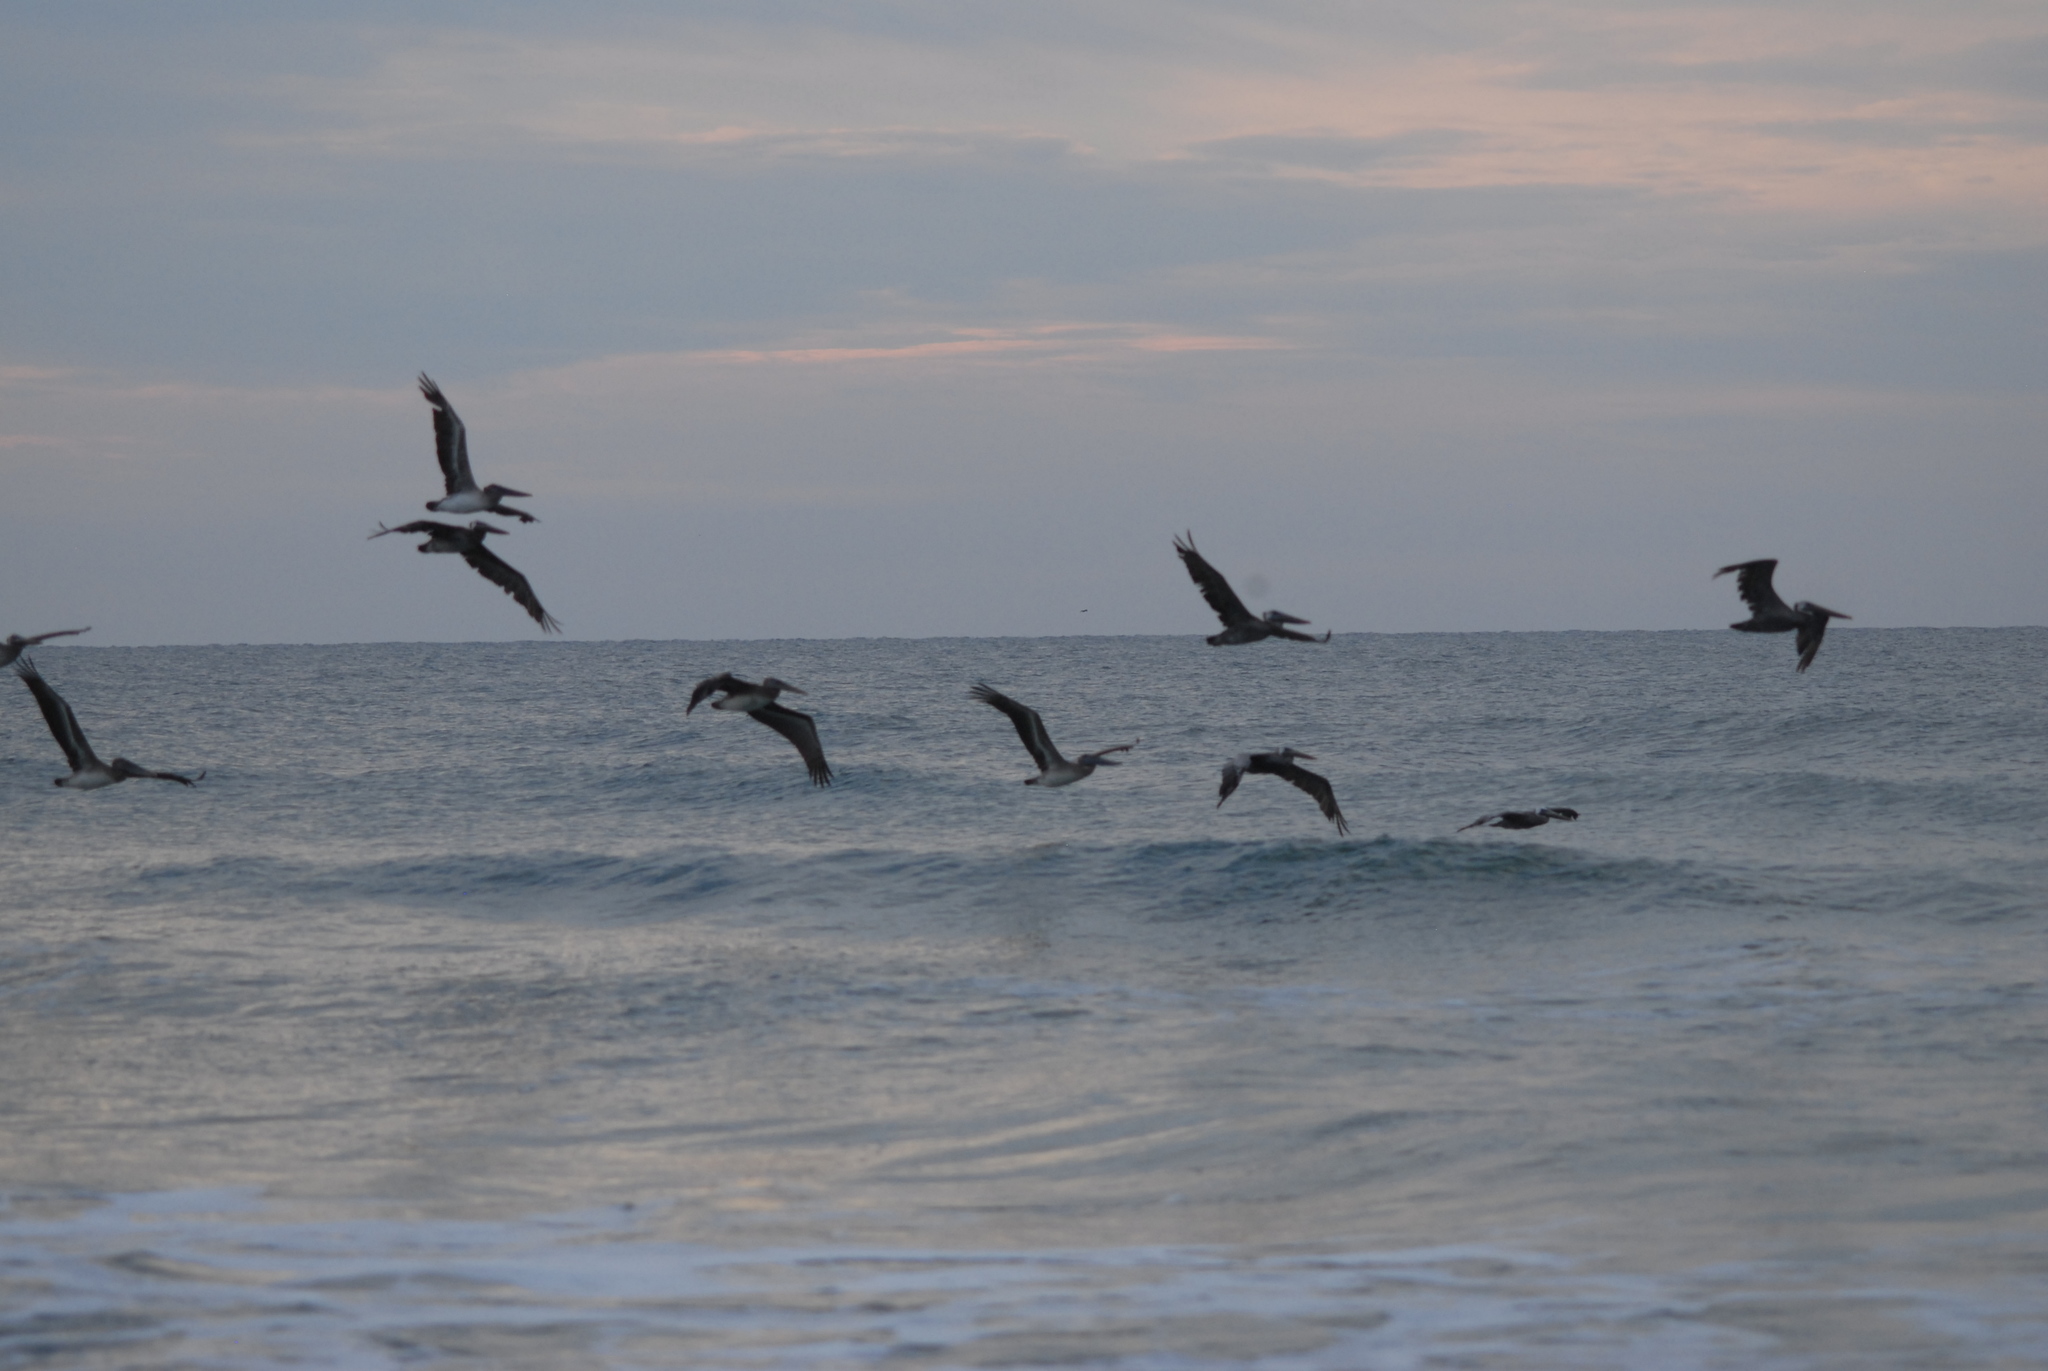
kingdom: Animalia
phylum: Chordata
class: Aves
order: Pelecaniformes
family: Pelecanidae
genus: Pelecanus
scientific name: Pelecanus occidentalis
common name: Brown pelican
